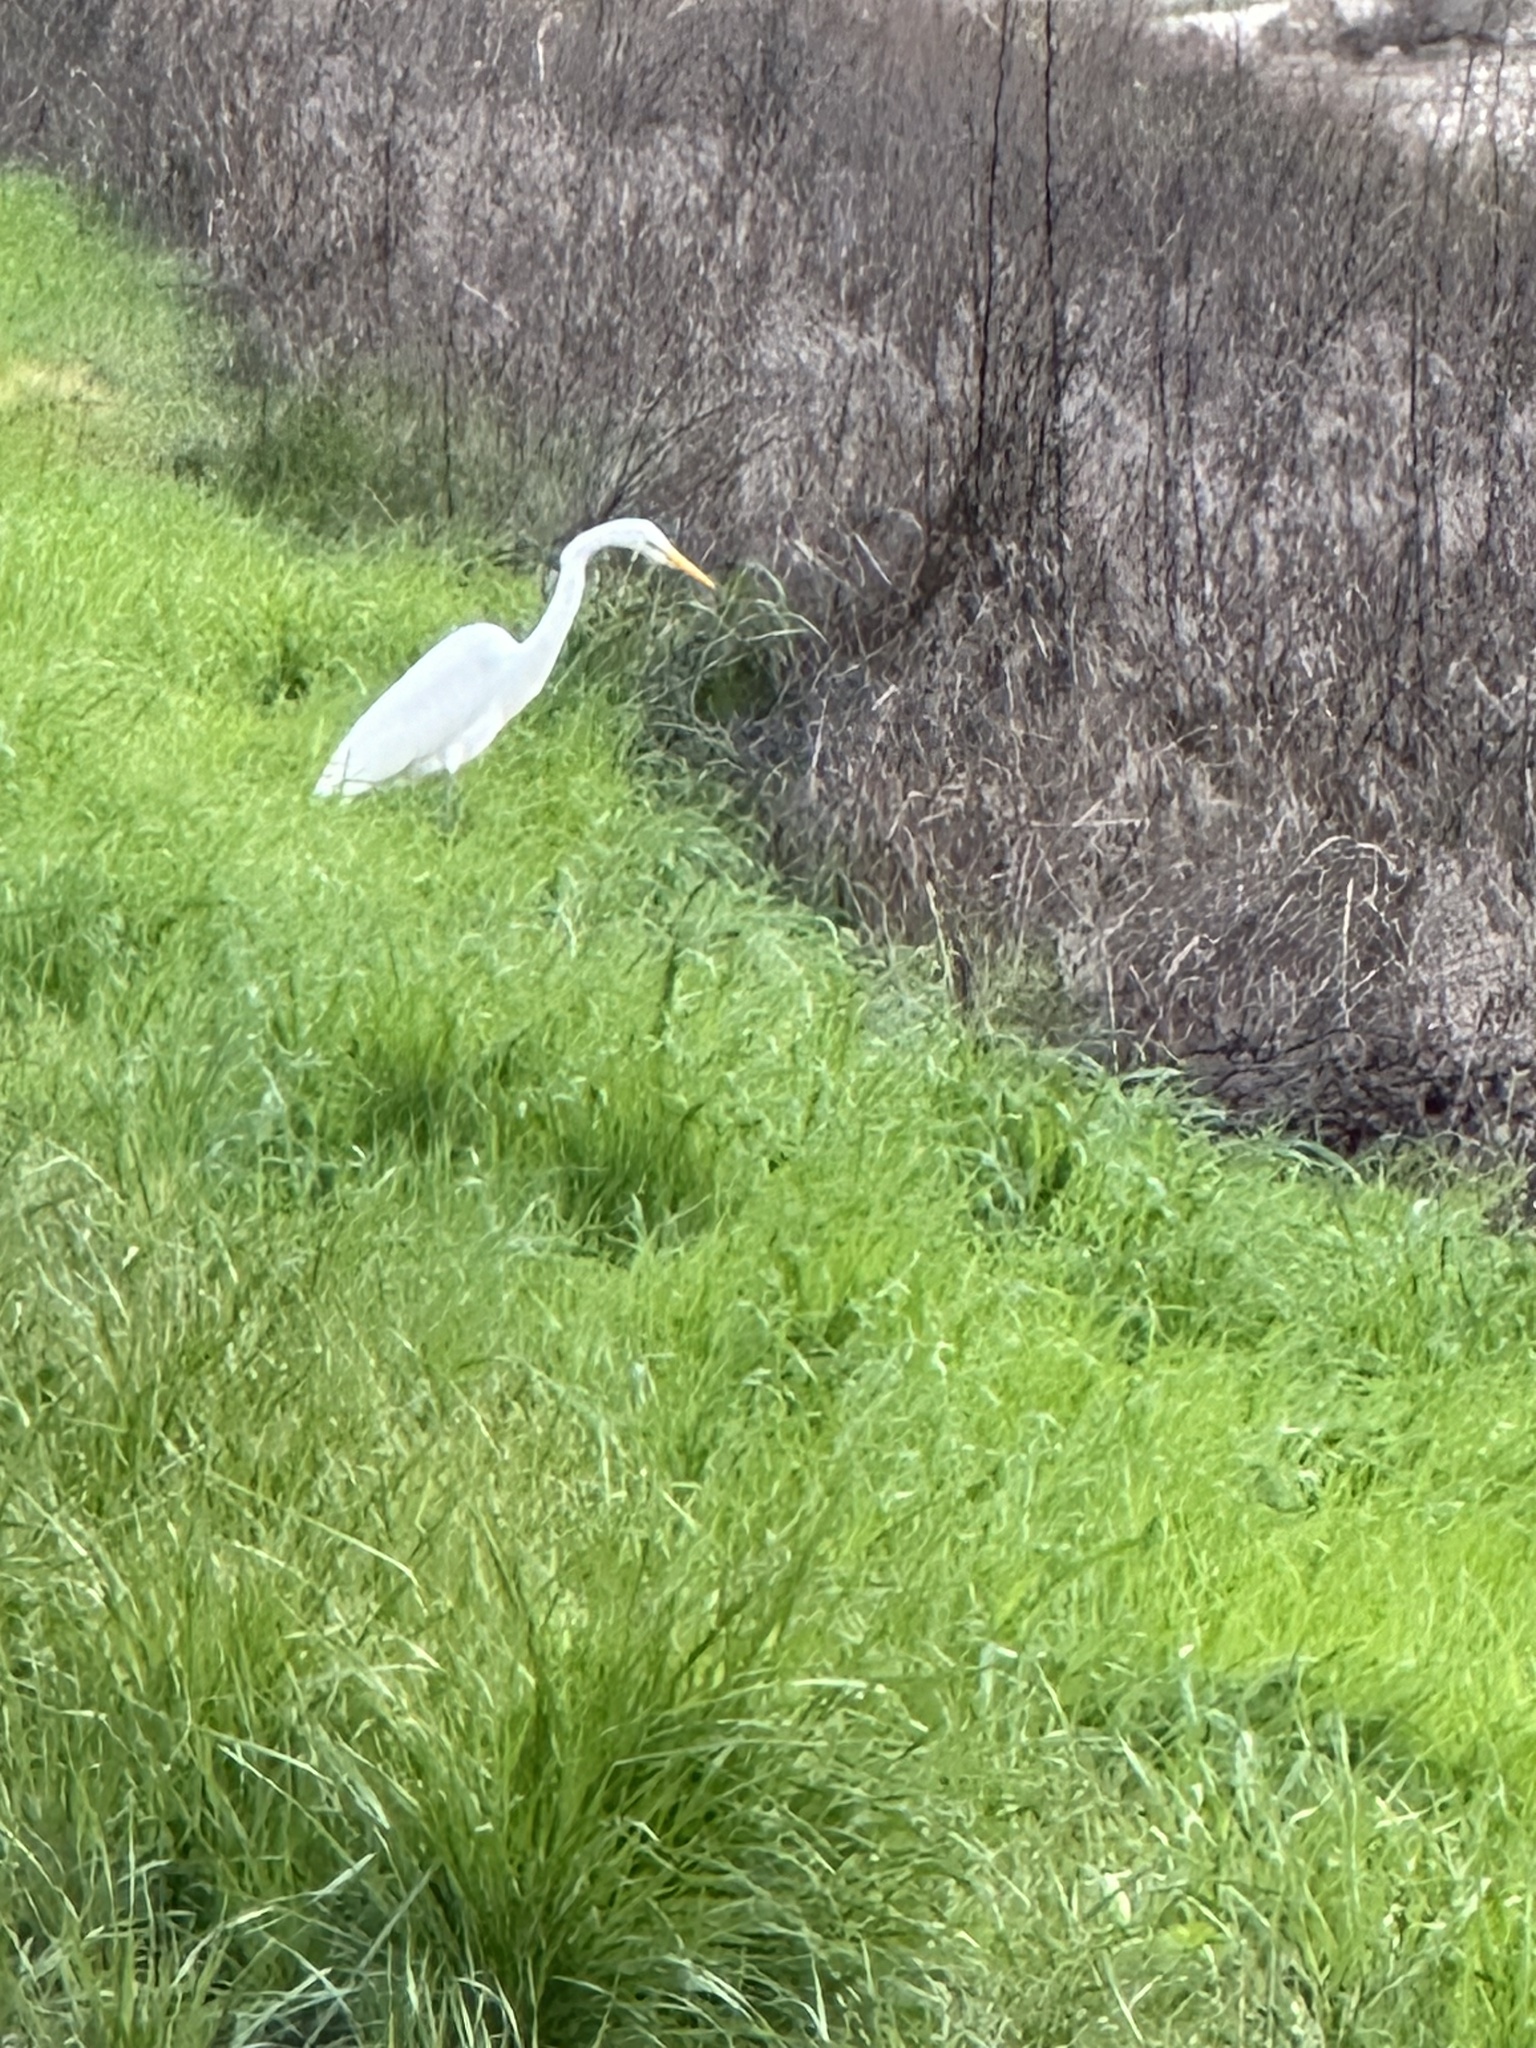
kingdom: Animalia
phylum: Chordata
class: Aves
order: Pelecaniformes
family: Ardeidae
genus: Ardea
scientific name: Ardea alba
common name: Great egret
